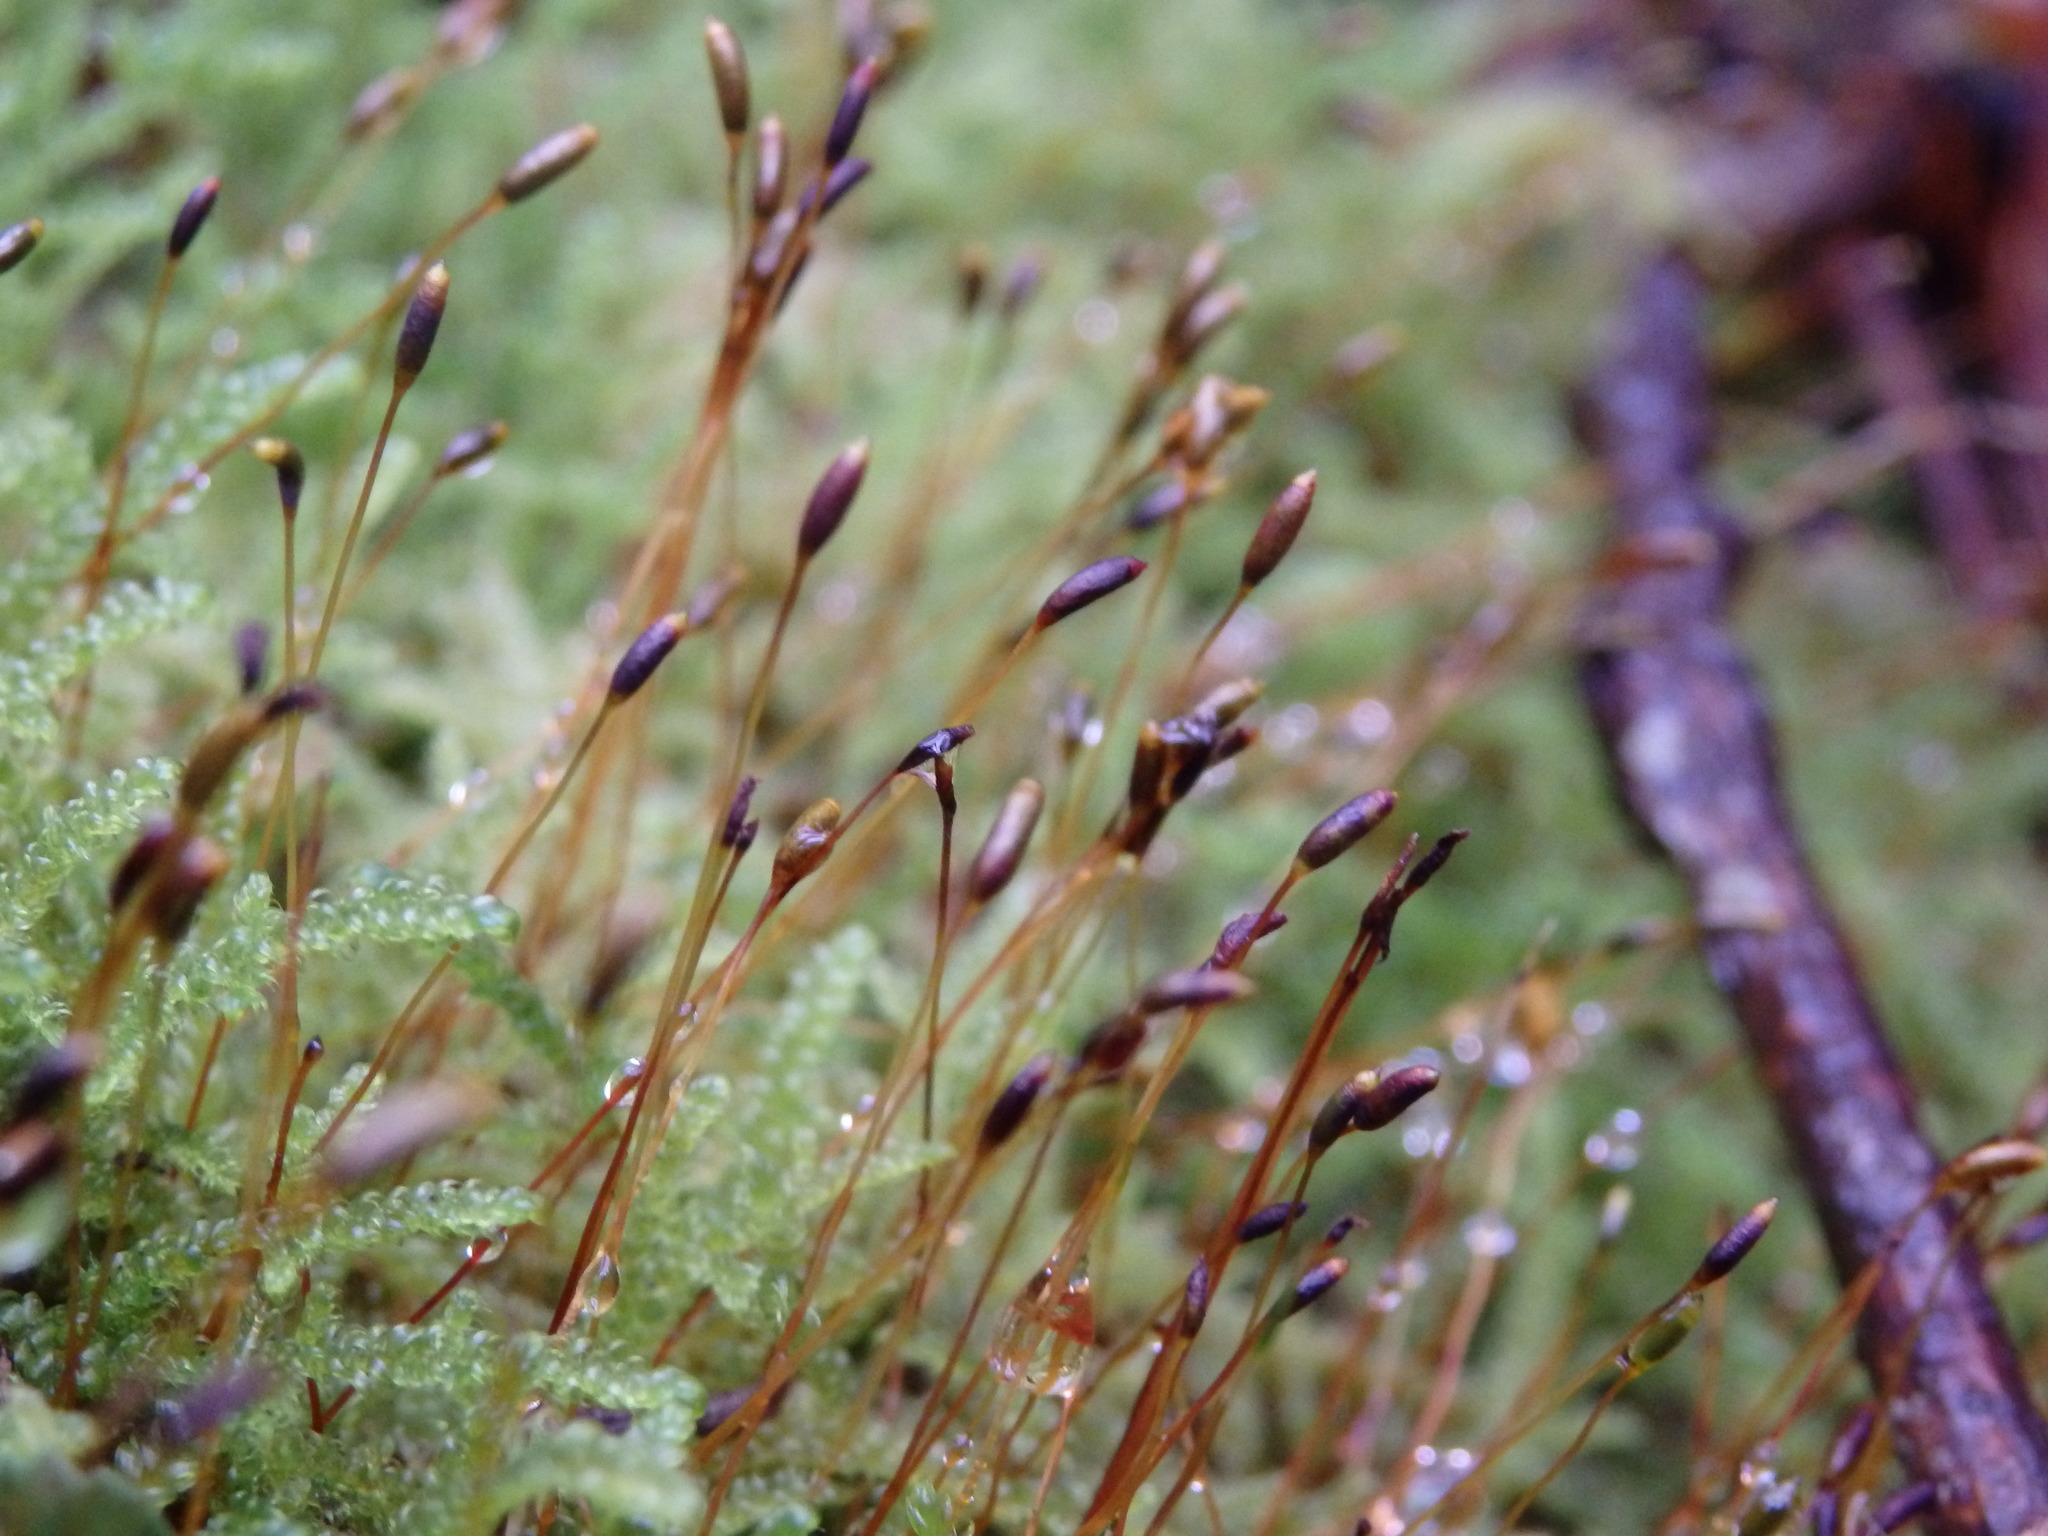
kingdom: Plantae
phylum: Bryophyta
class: Bryopsida
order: Hypnales
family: Hypnaceae
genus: Hypnum
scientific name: Hypnum andoi
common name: Ando's plait moss
